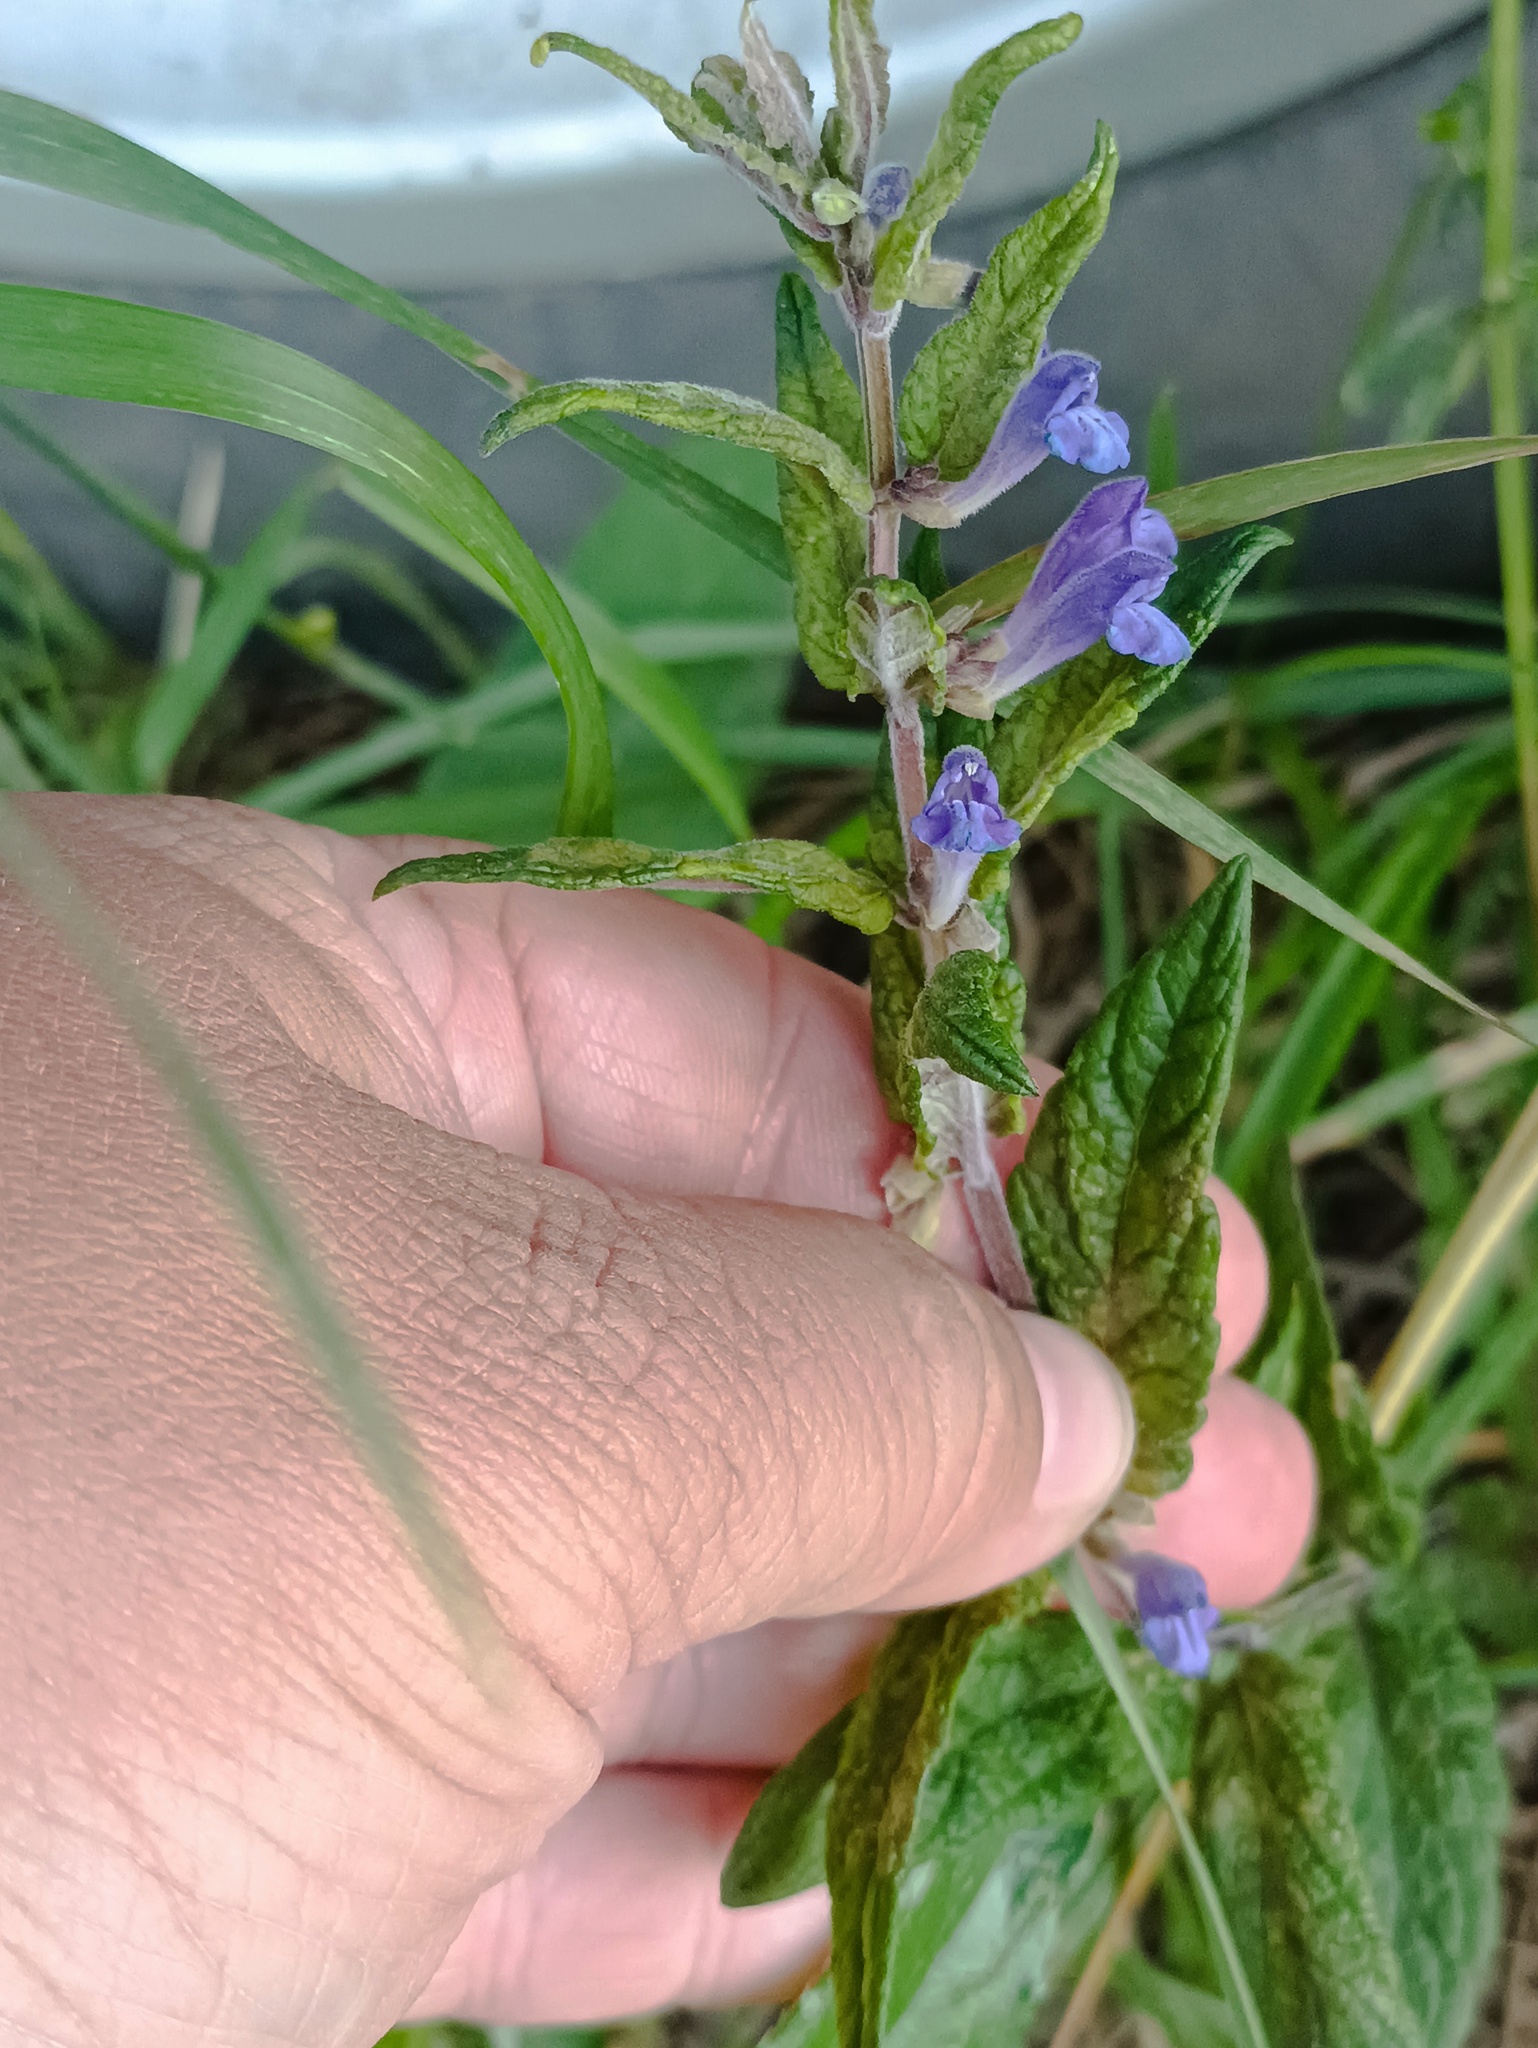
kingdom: Plantae
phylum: Tracheophyta
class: Magnoliopsida
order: Lamiales
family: Lamiaceae
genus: Scutellaria
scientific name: Scutellaria galericulata
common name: Skullcap
